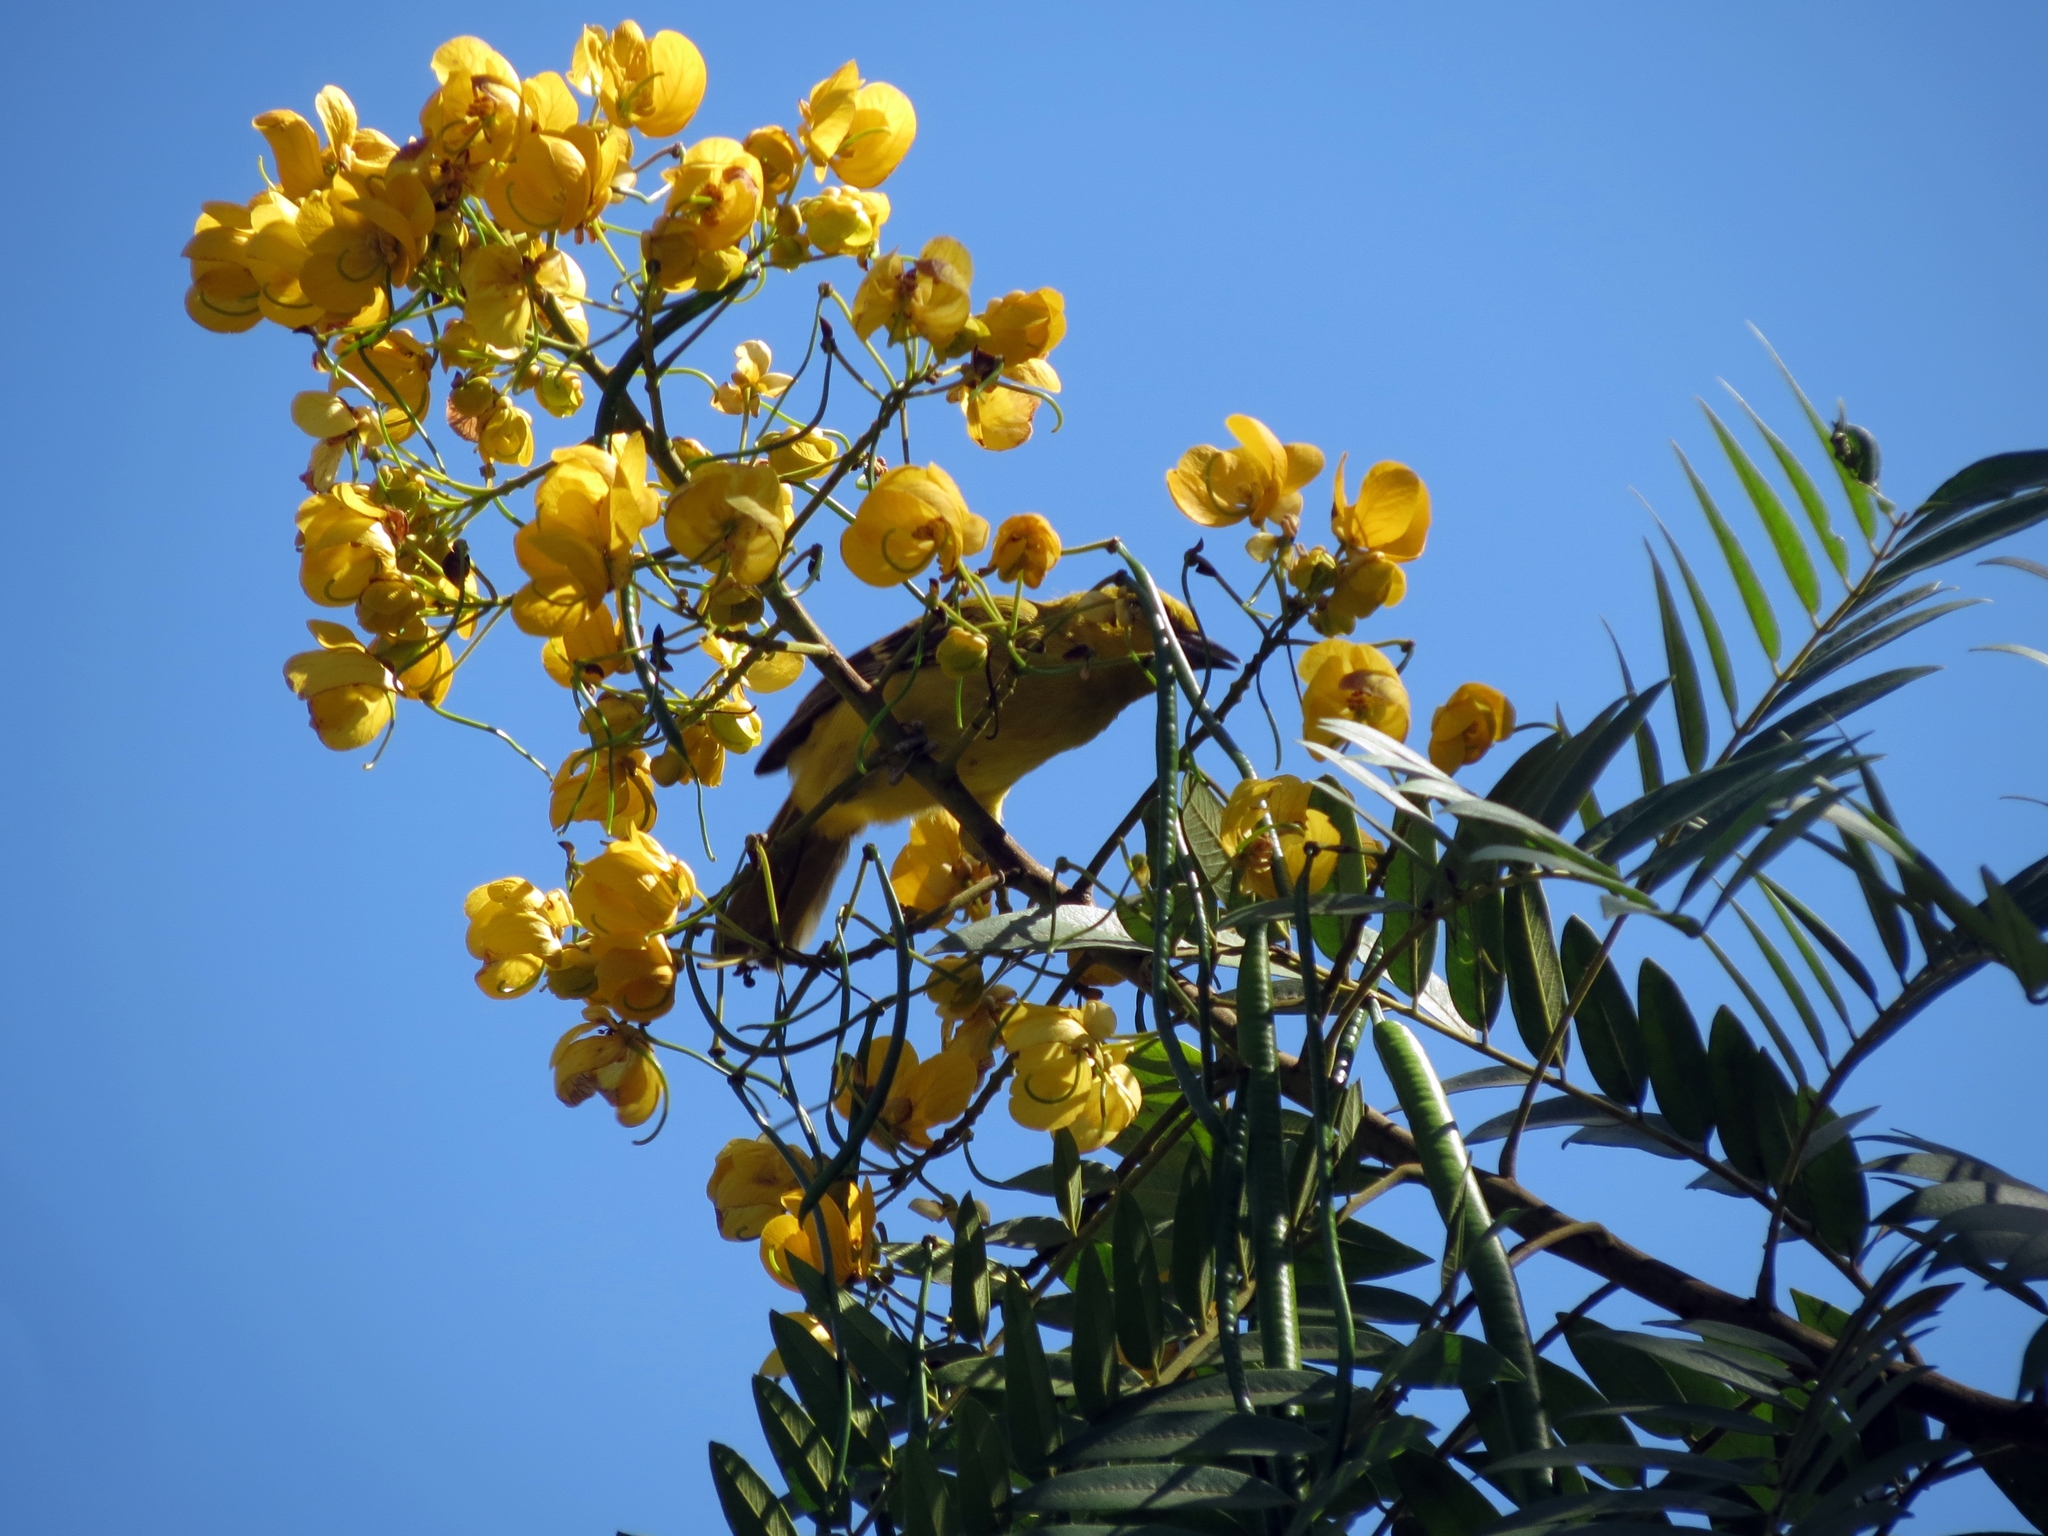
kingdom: Animalia
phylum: Chordata
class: Aves
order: Passeriformes
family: Icteridae
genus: Icterus
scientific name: Icterus nigrogularis
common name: Yellow oriole
